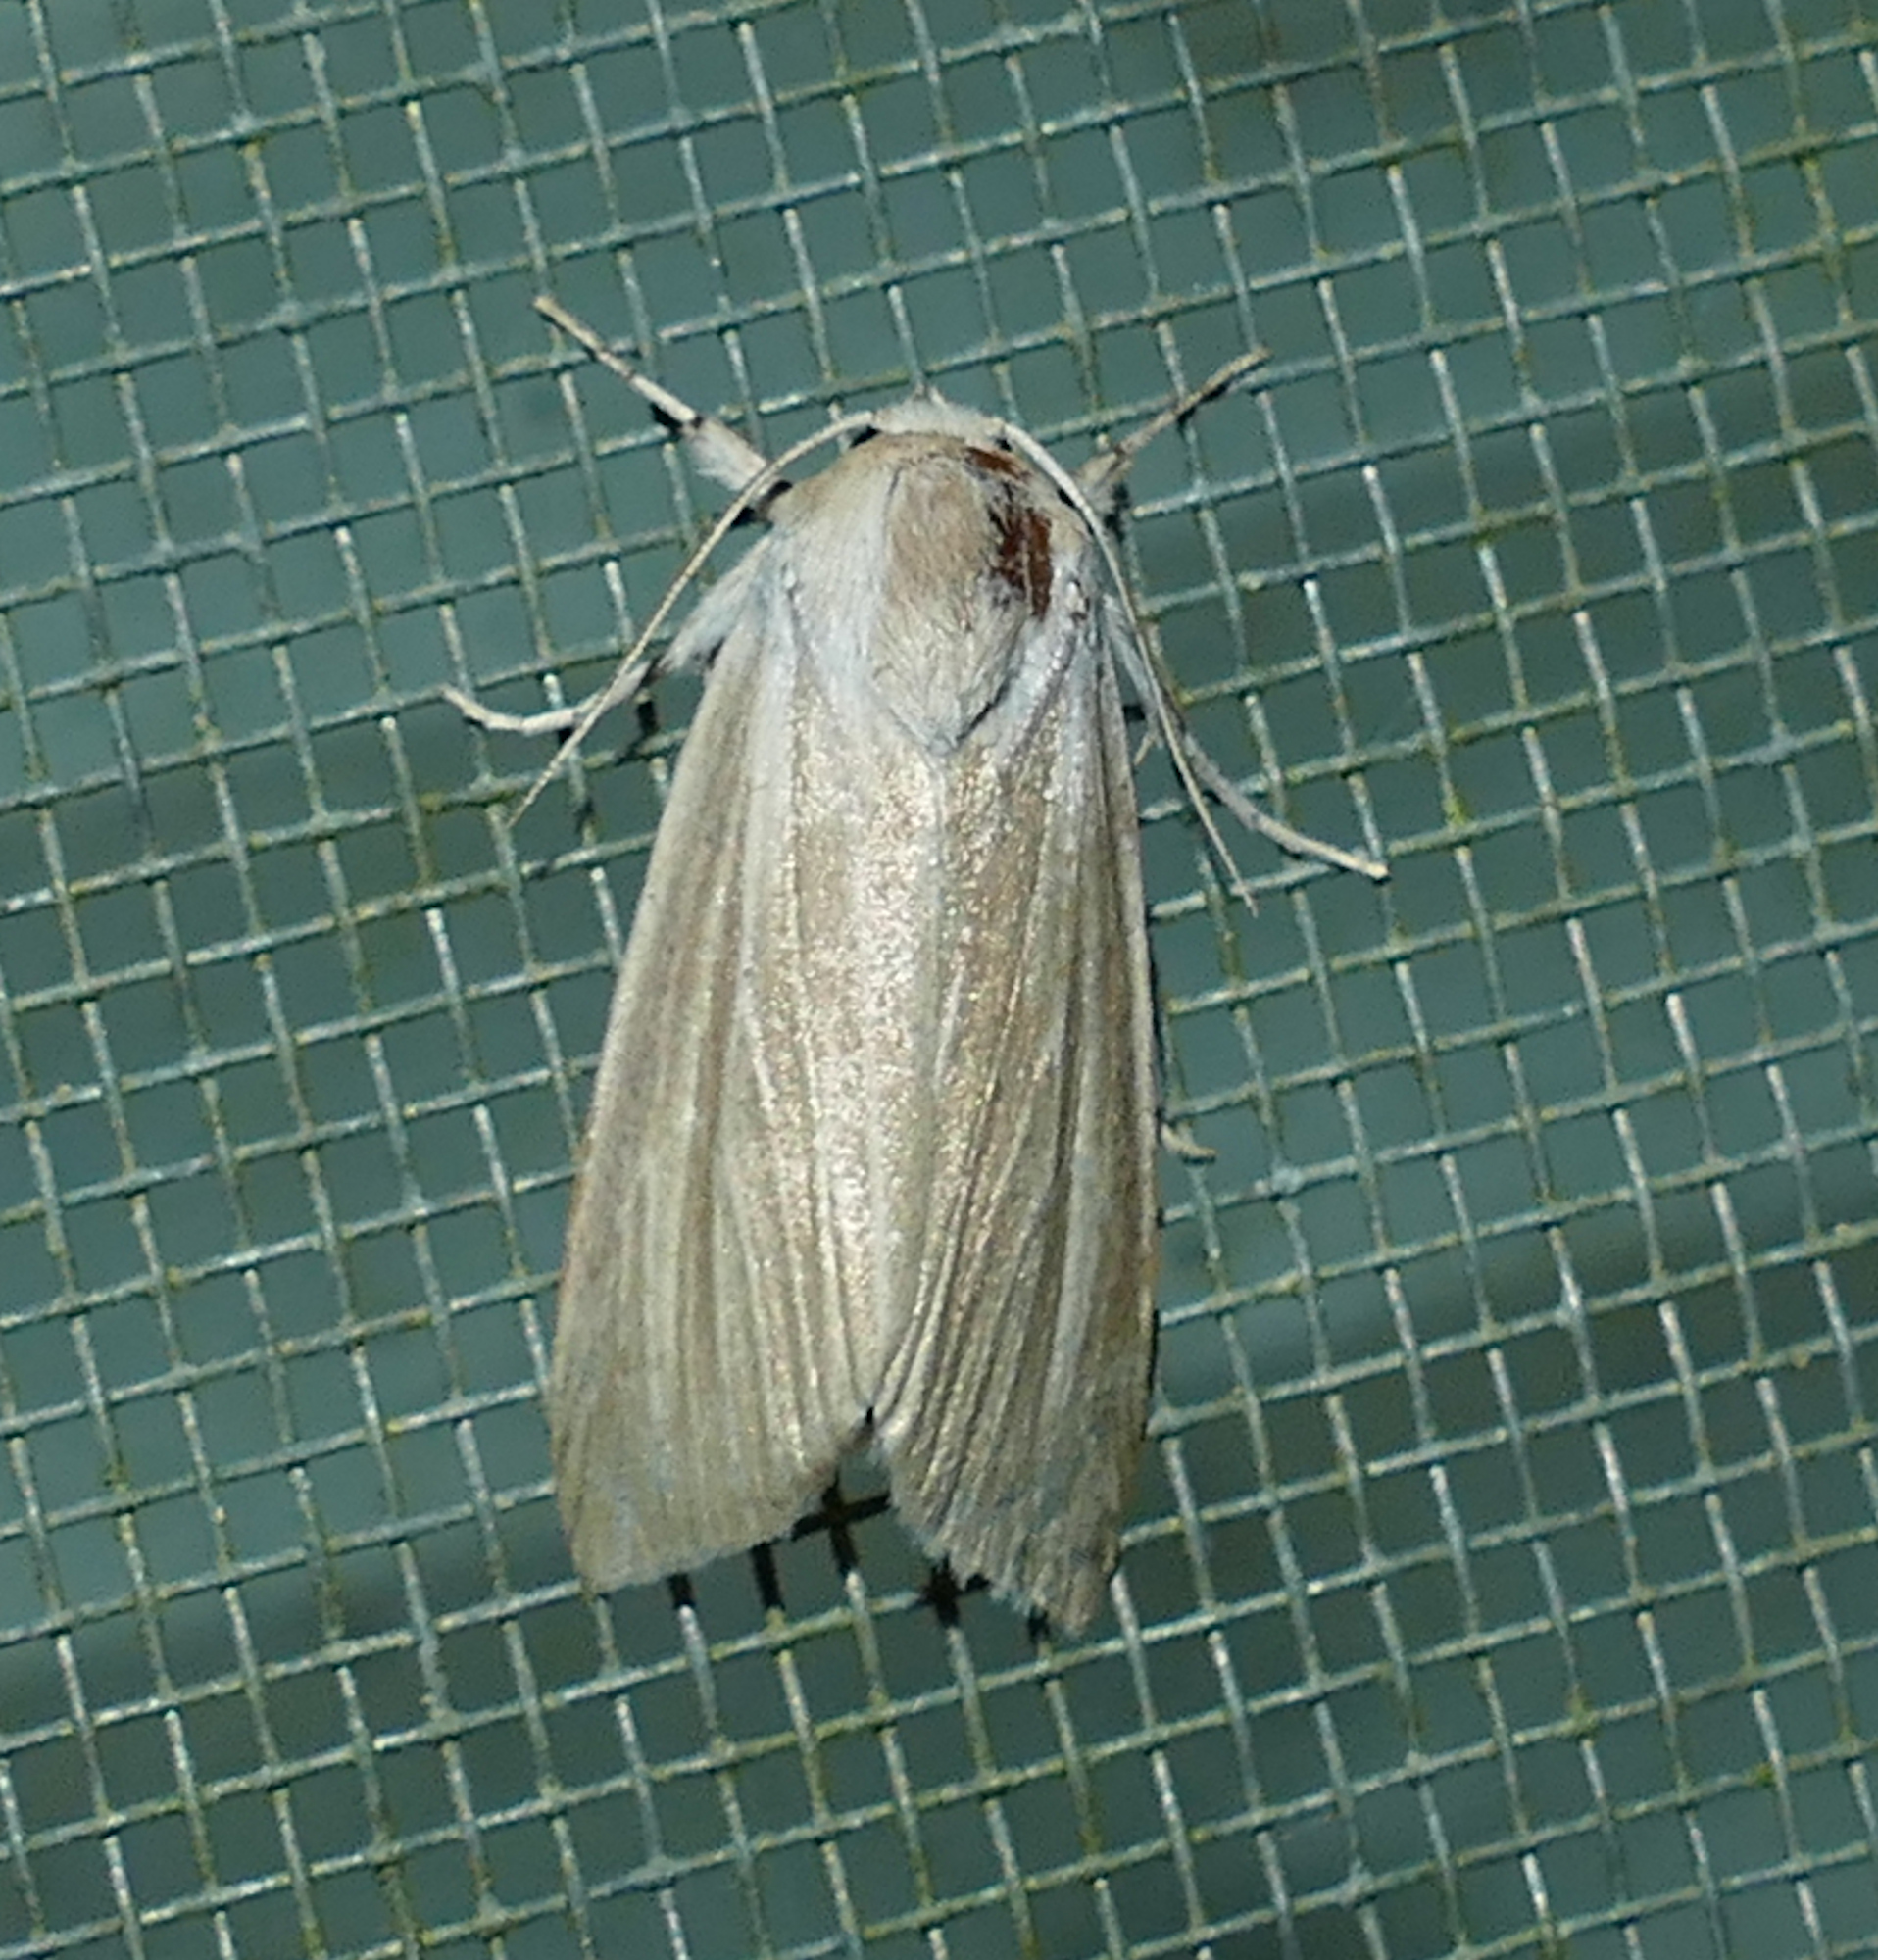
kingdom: Animalia
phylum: Arthropoda
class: Insecta
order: Lepidoptera
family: Noctuidae
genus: Acronicta
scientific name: Acronicta insularis
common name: Henry's marsh moth
